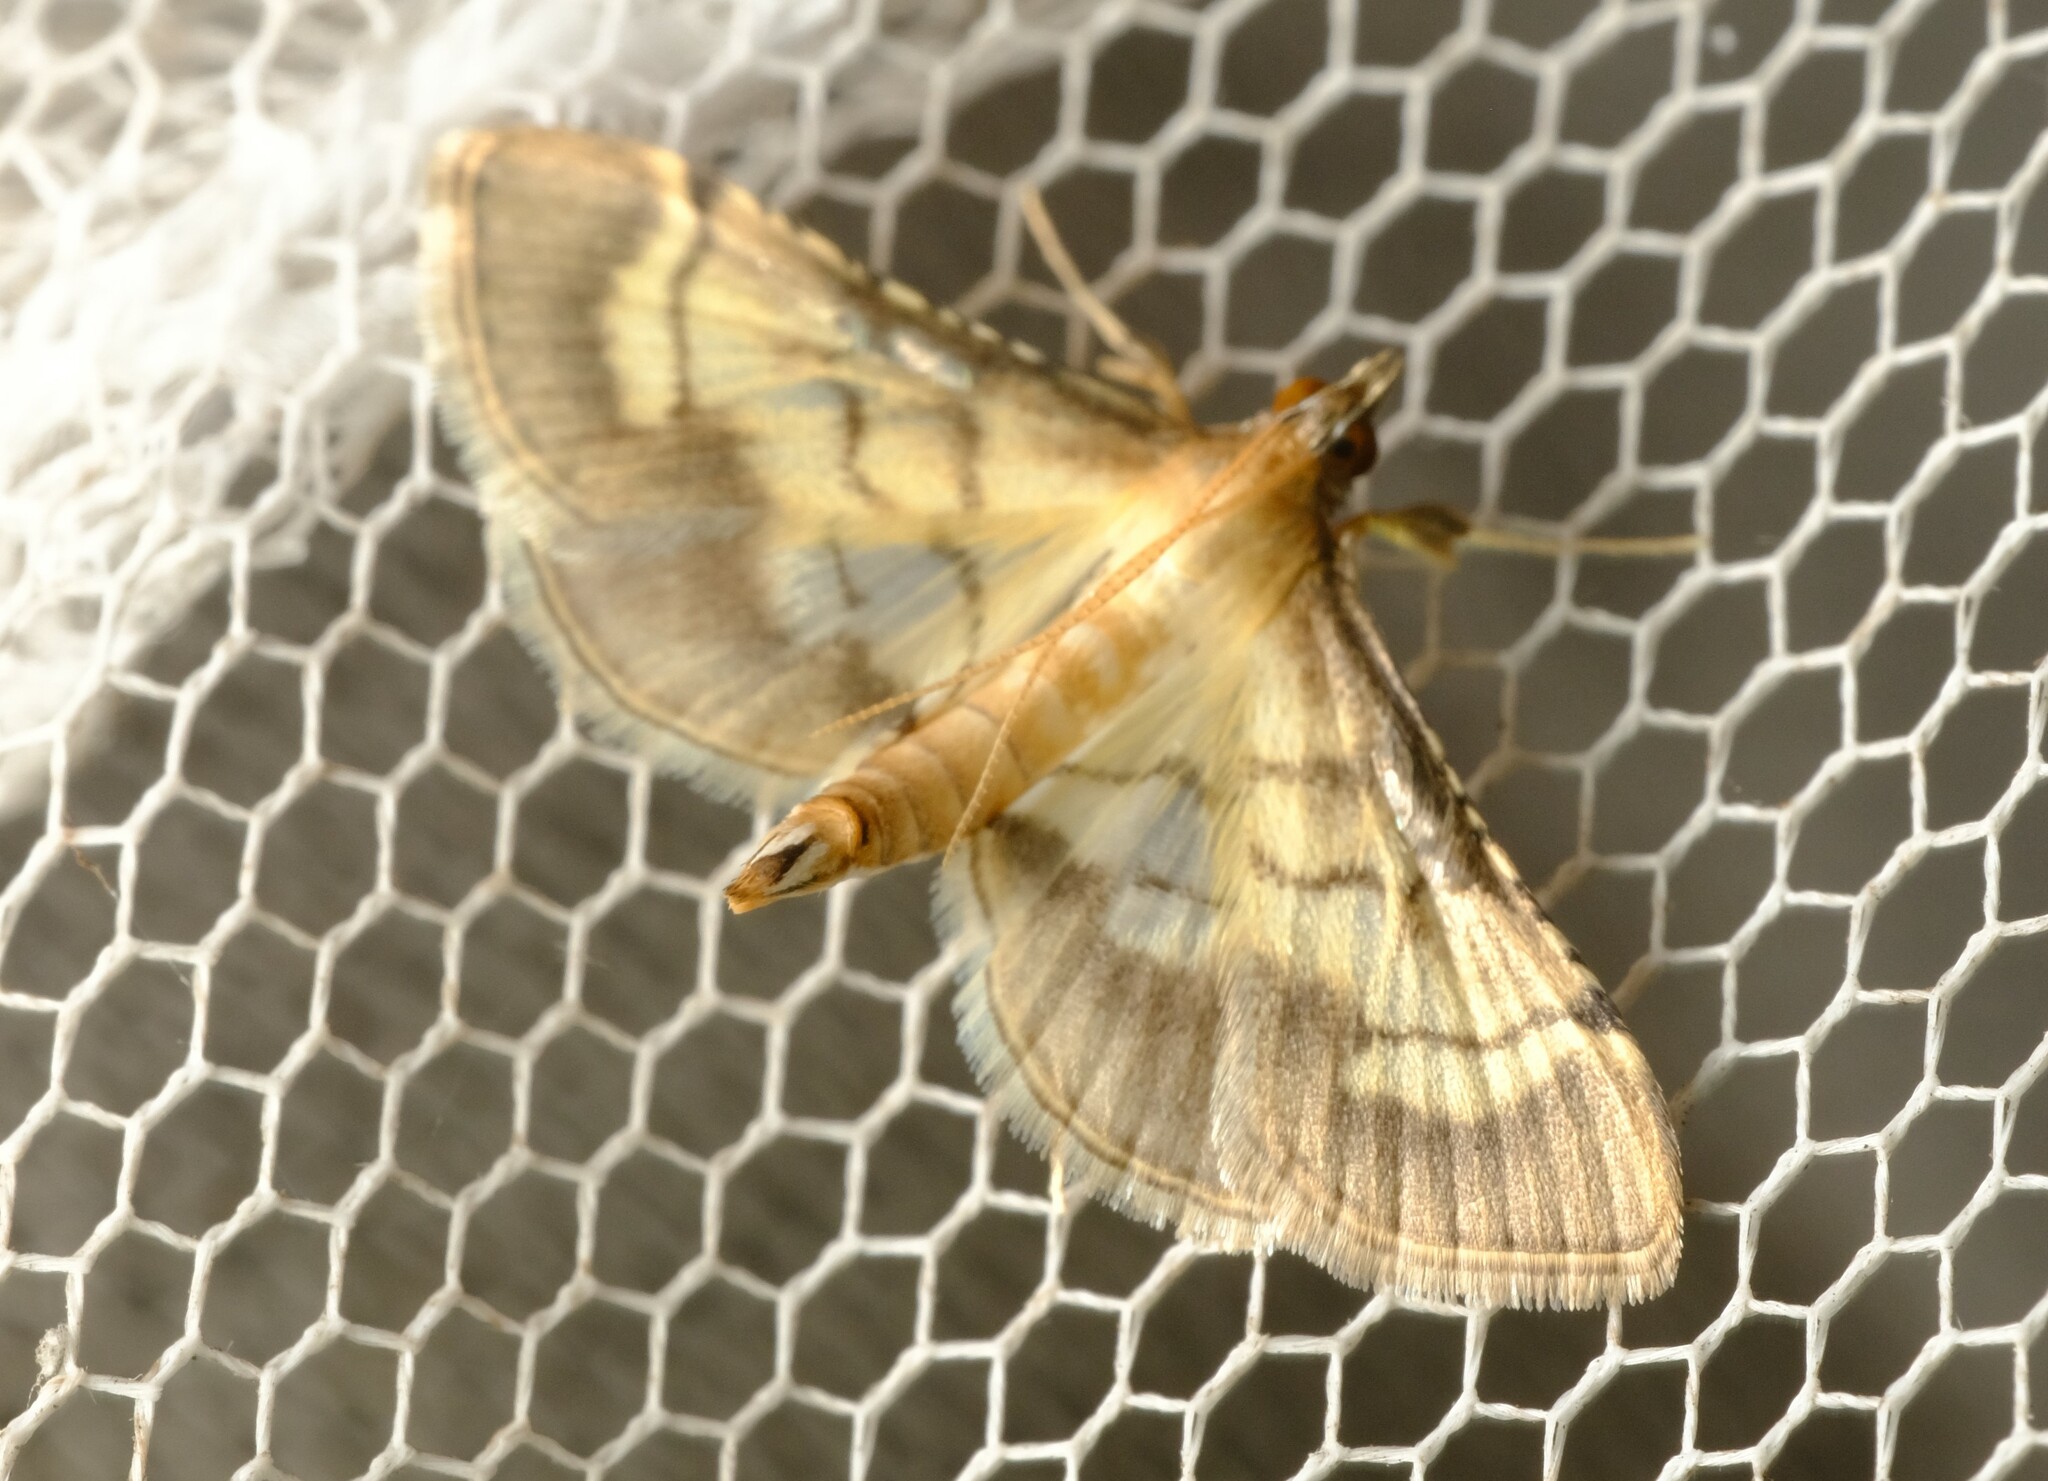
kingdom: Animalia
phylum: Arthropoda
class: Insecta
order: Lepidoptera
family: Crambidae
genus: Cnaphalocrocis
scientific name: Cnaphalocrocis poeyalis
